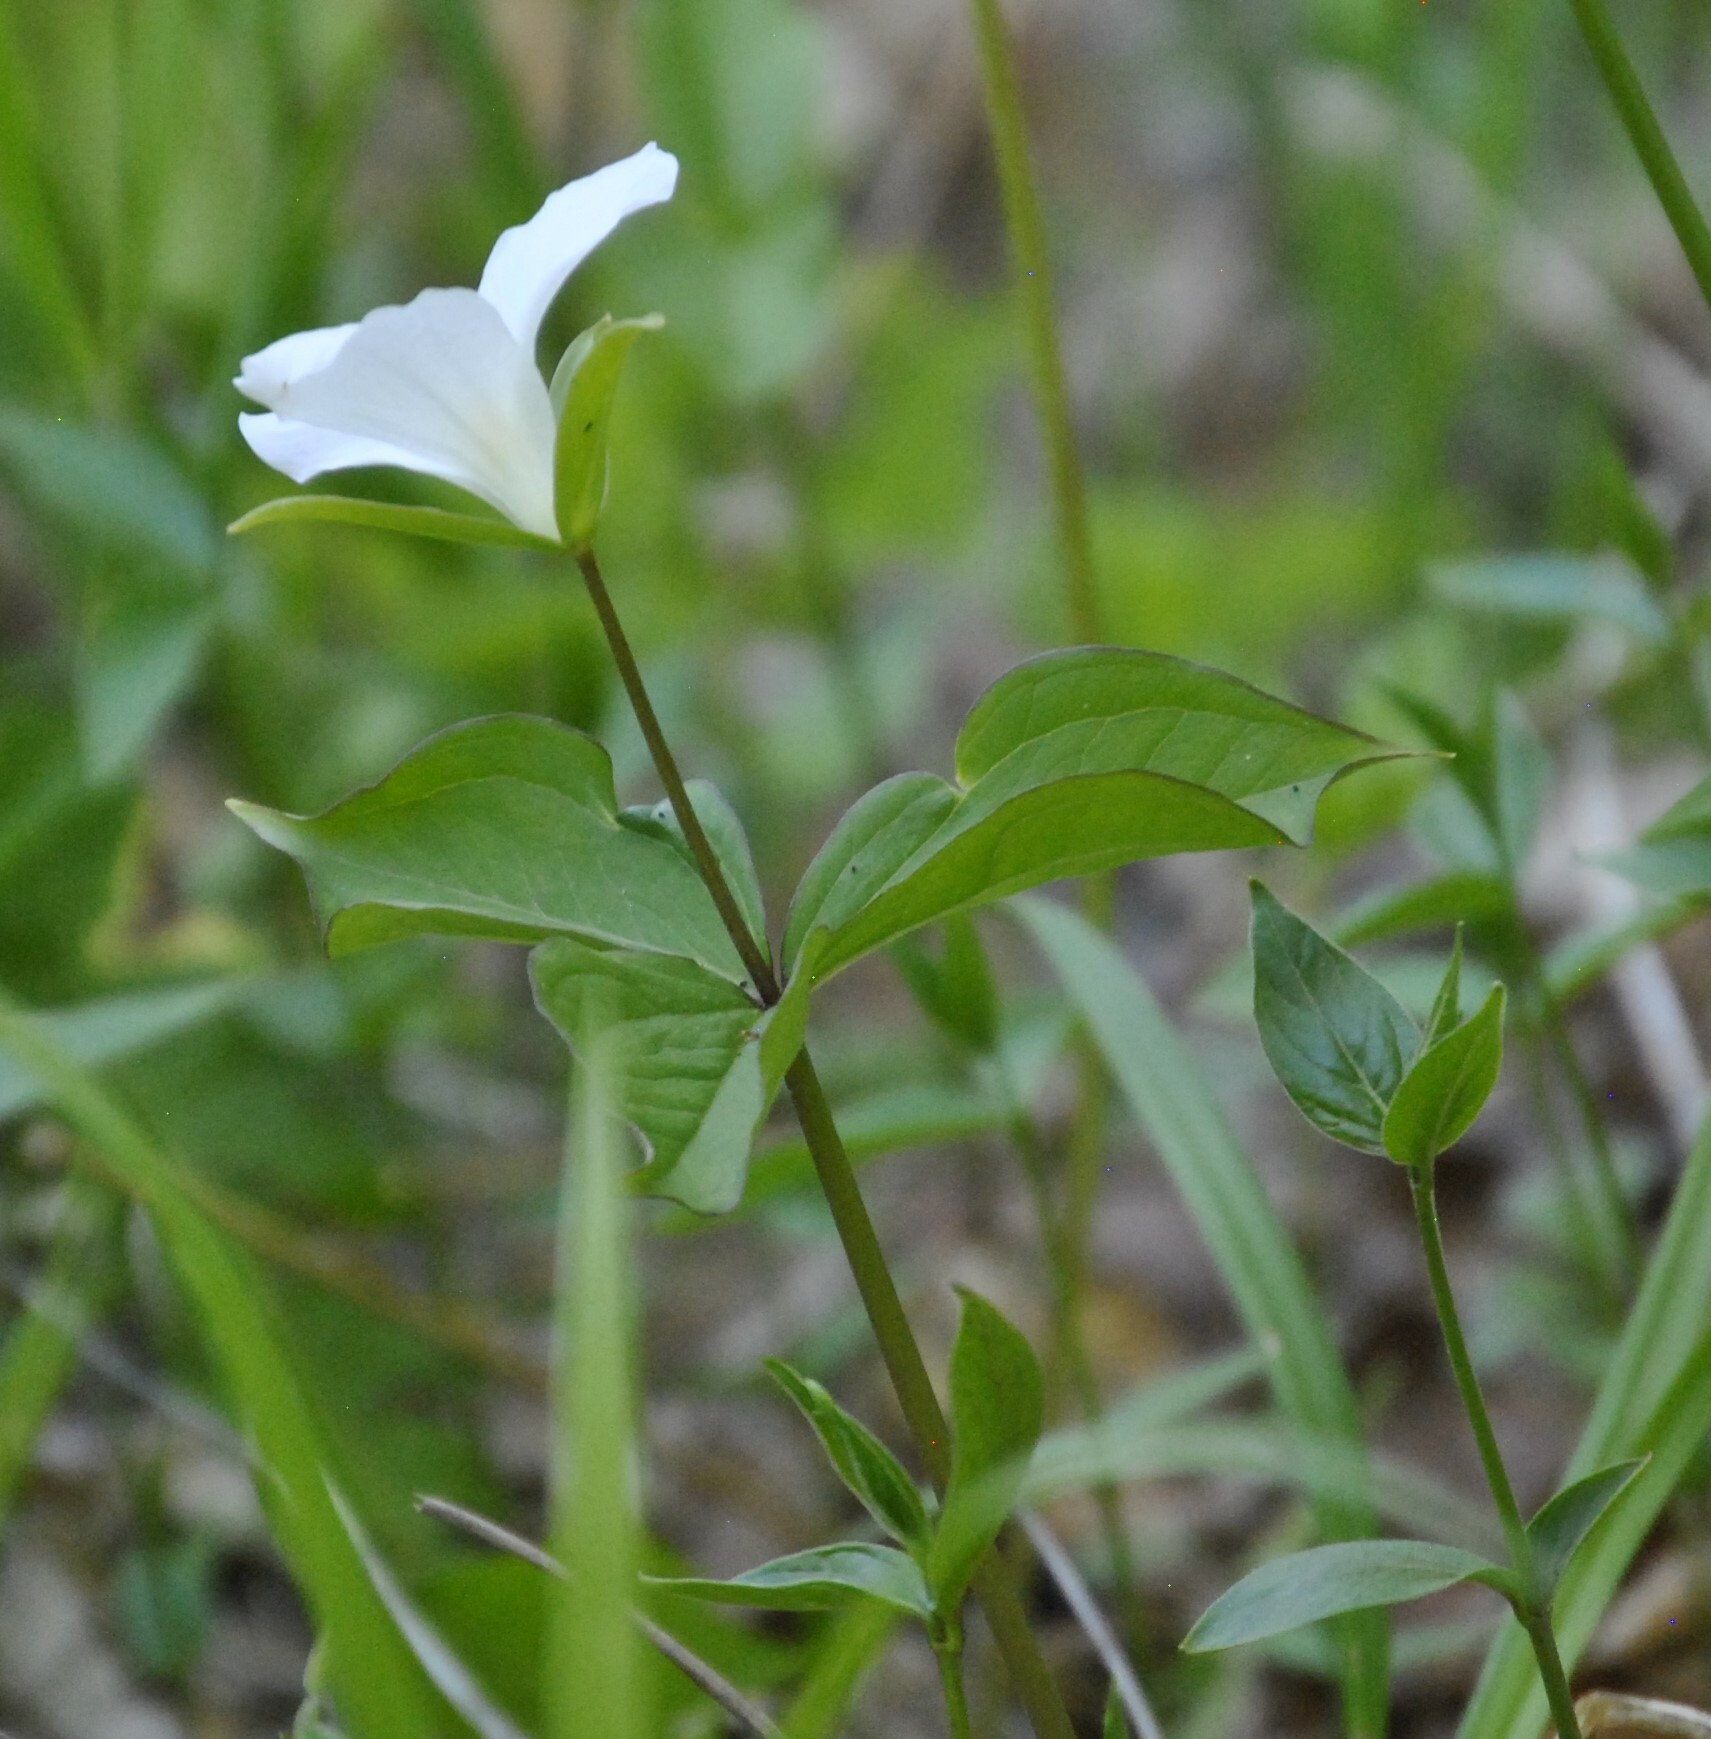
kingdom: Plantae
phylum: Tracheophyta
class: Liliopsida
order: Liliales
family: Melanthiaceae
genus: Trillium
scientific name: Trillium grandiflorum
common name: Great white trillium
